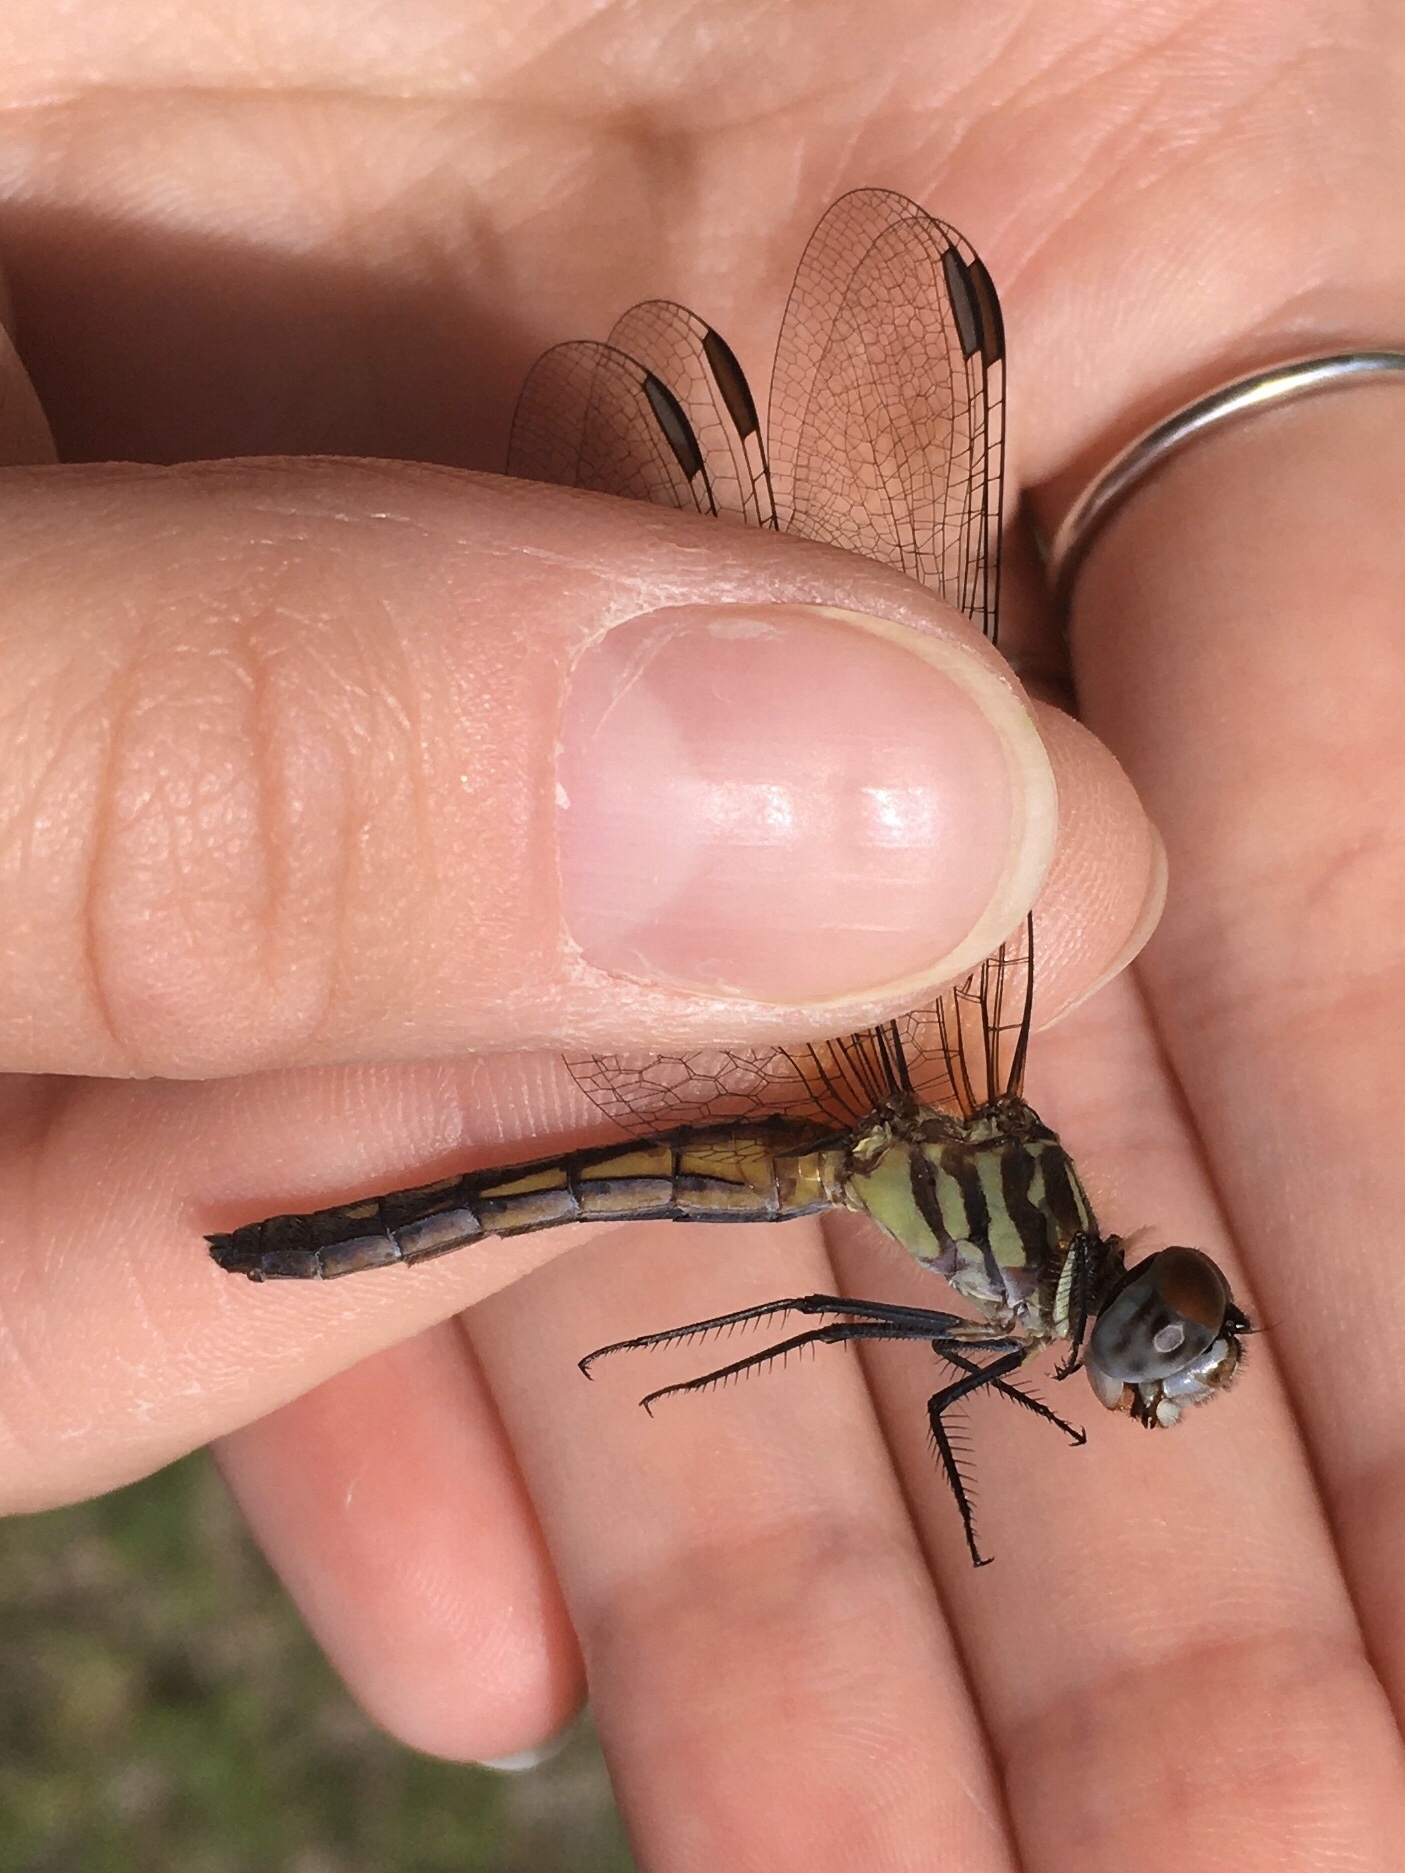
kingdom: Animalia
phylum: Arthropoda
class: Insecta
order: Odonata
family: Libellulidae
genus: Pachydiplax
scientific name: Pachydiplax longipennis
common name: Blue dasher
